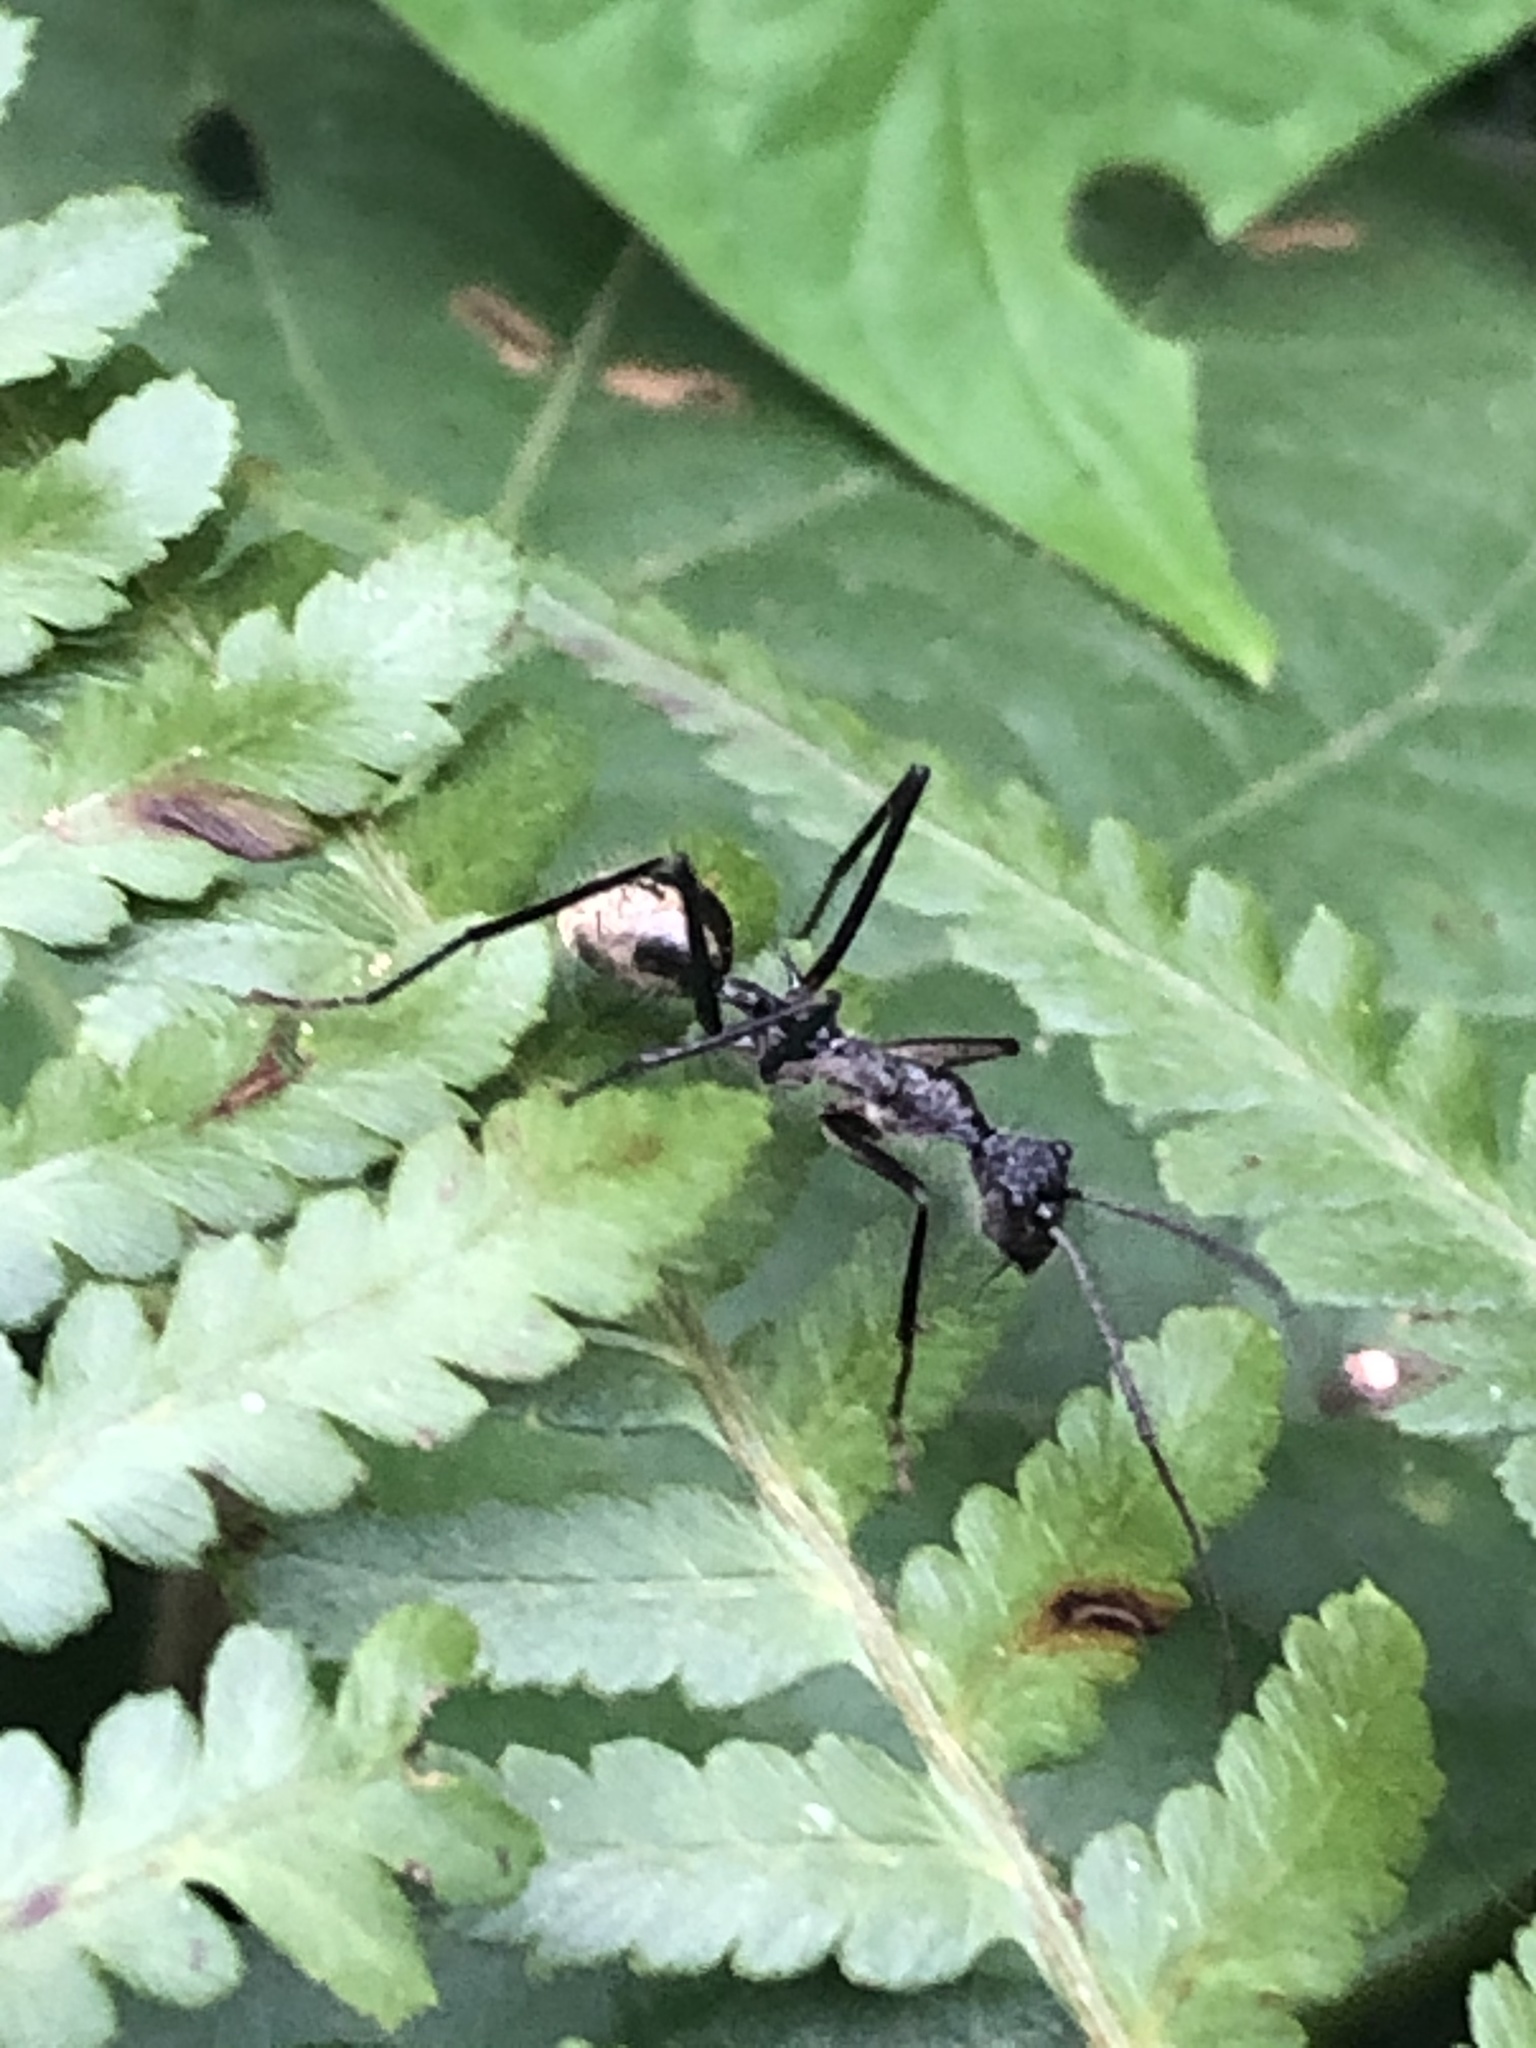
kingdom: Animalia
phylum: Arthropoda
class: Insecta
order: Hymenoptera
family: Formicidae
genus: Dolichoderus
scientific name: Dolichoderus rugosus
